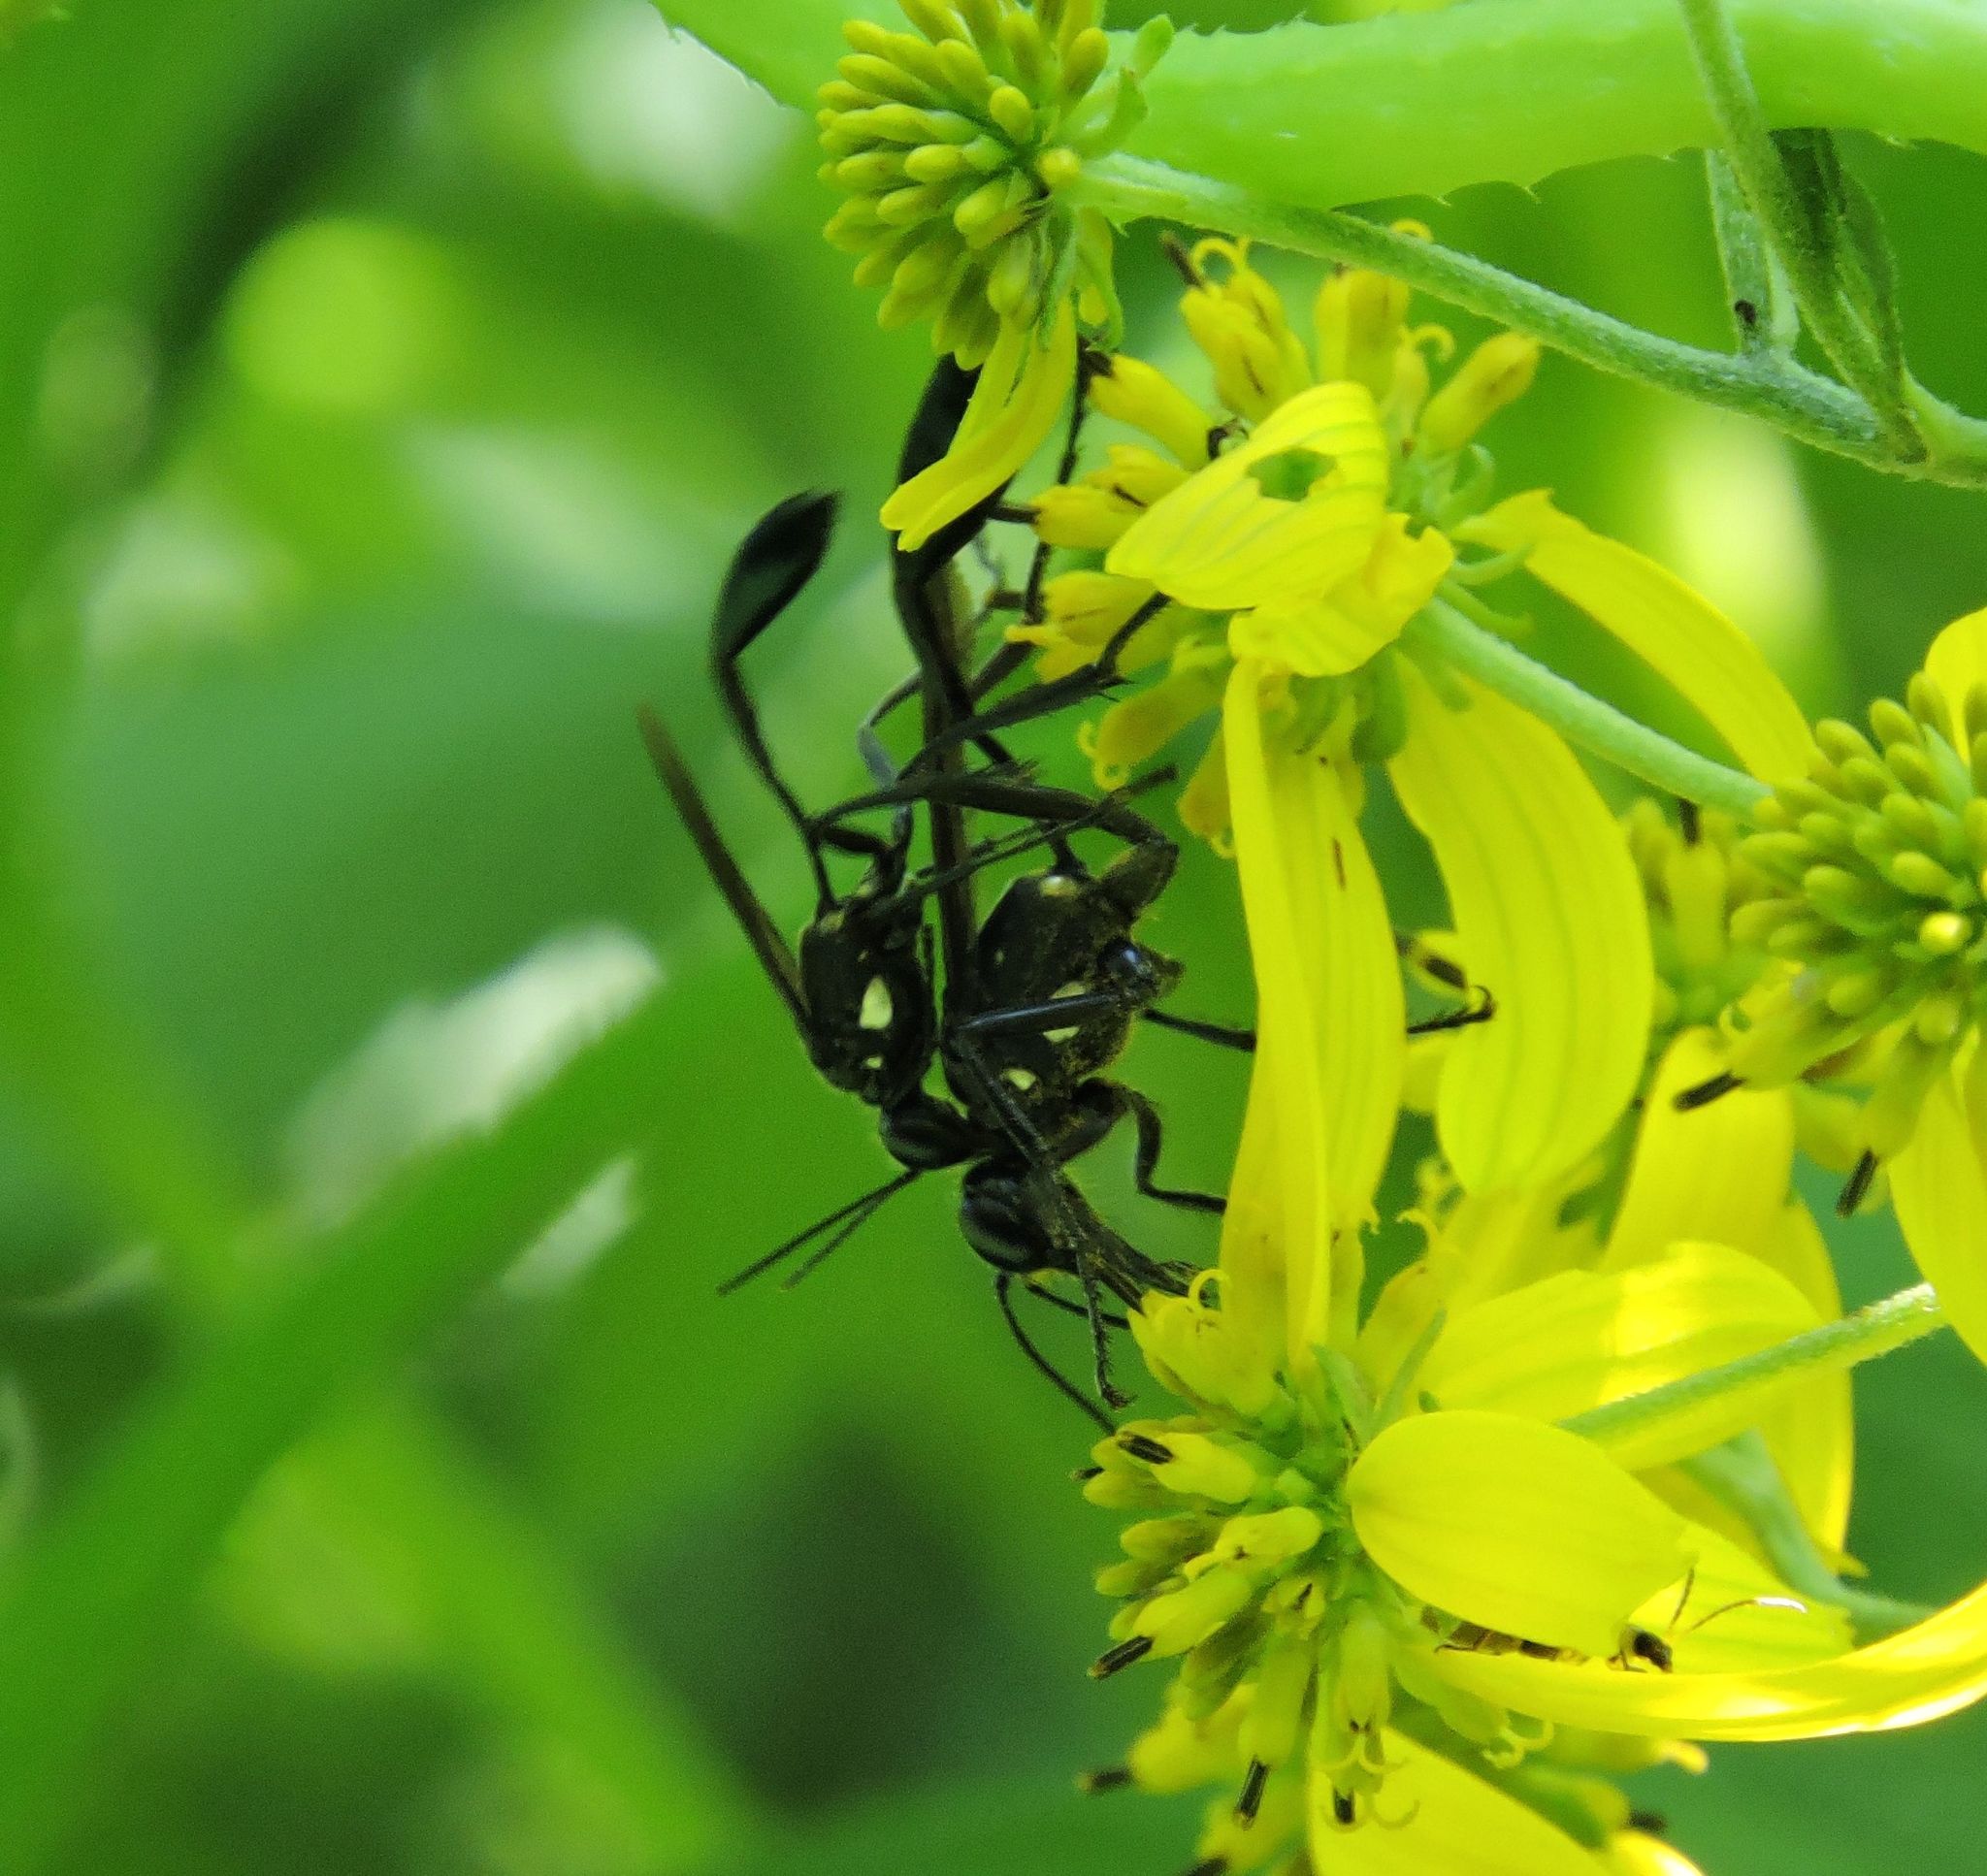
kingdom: Animalia
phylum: Arthropoda
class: Insecta
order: Hymenoptera
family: Sphecidae
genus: Eremnophila
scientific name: Eremnophila aureonotata
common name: Gold-marked thread-waisted wasp
